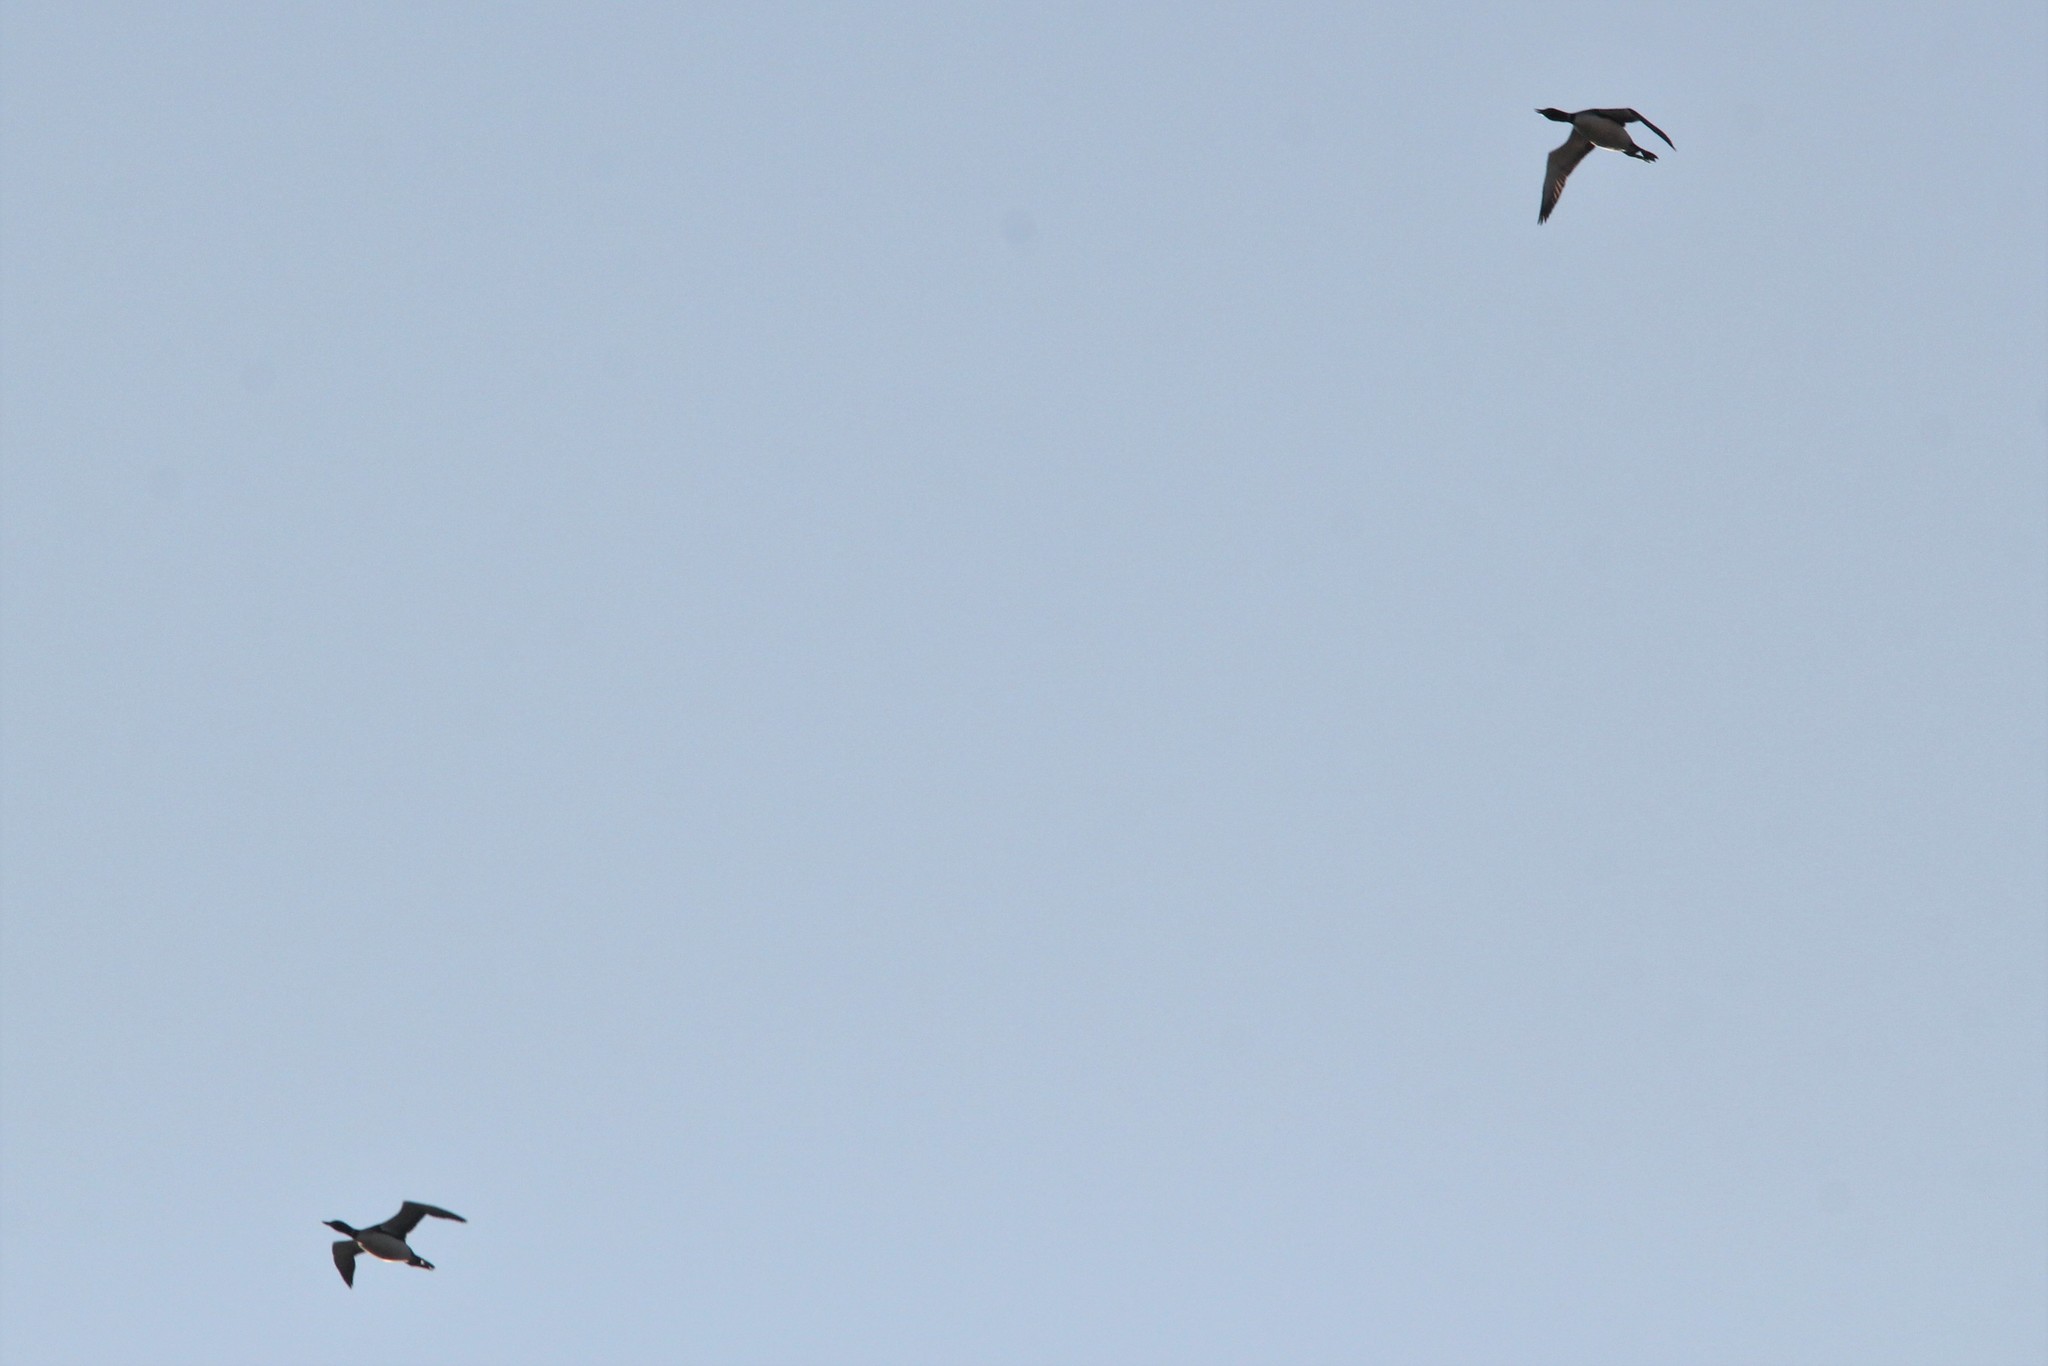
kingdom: Animalia
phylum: Chordata
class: Aves
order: Gaviiformes
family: Gaviidae
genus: Gavia
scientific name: Gavia immer
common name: Common loon
